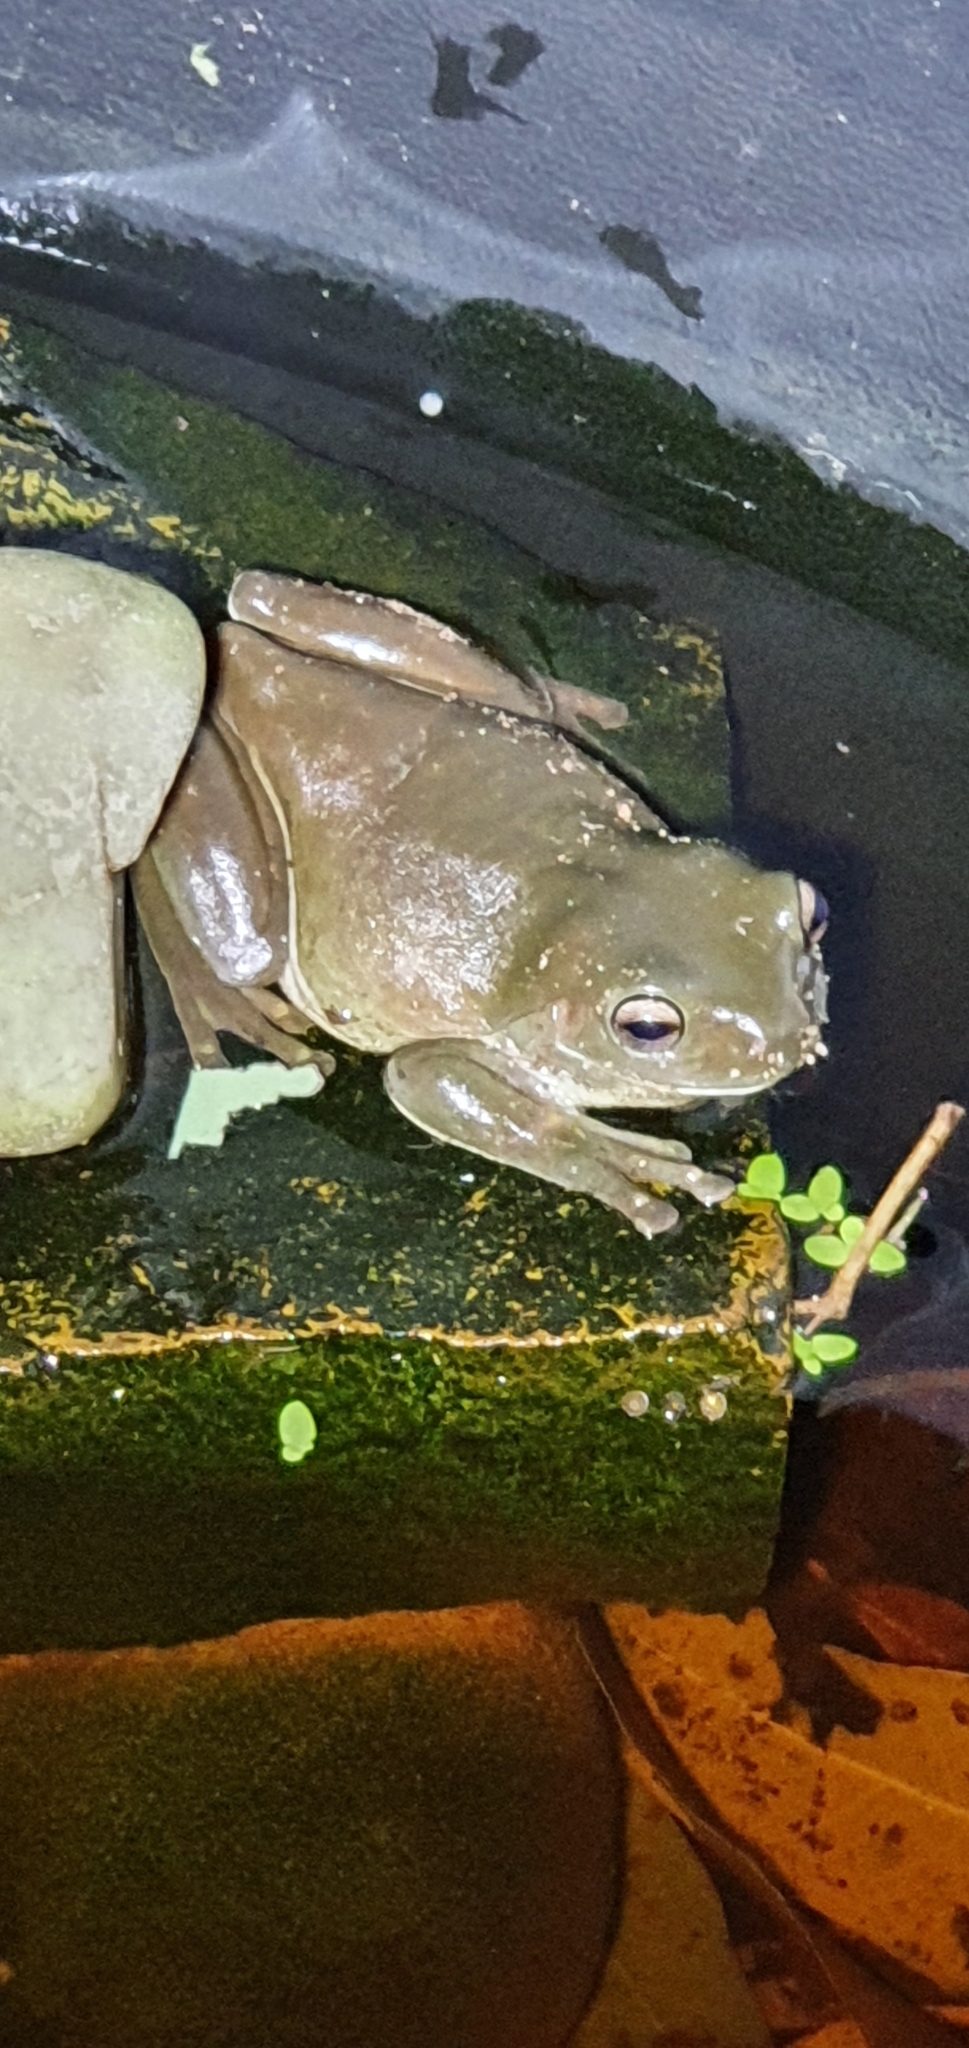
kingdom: Animalia
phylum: Chordata
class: Amphibia
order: Anura
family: Pelodryadidae
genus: Ranoidea
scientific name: Ranoidea caerulea
